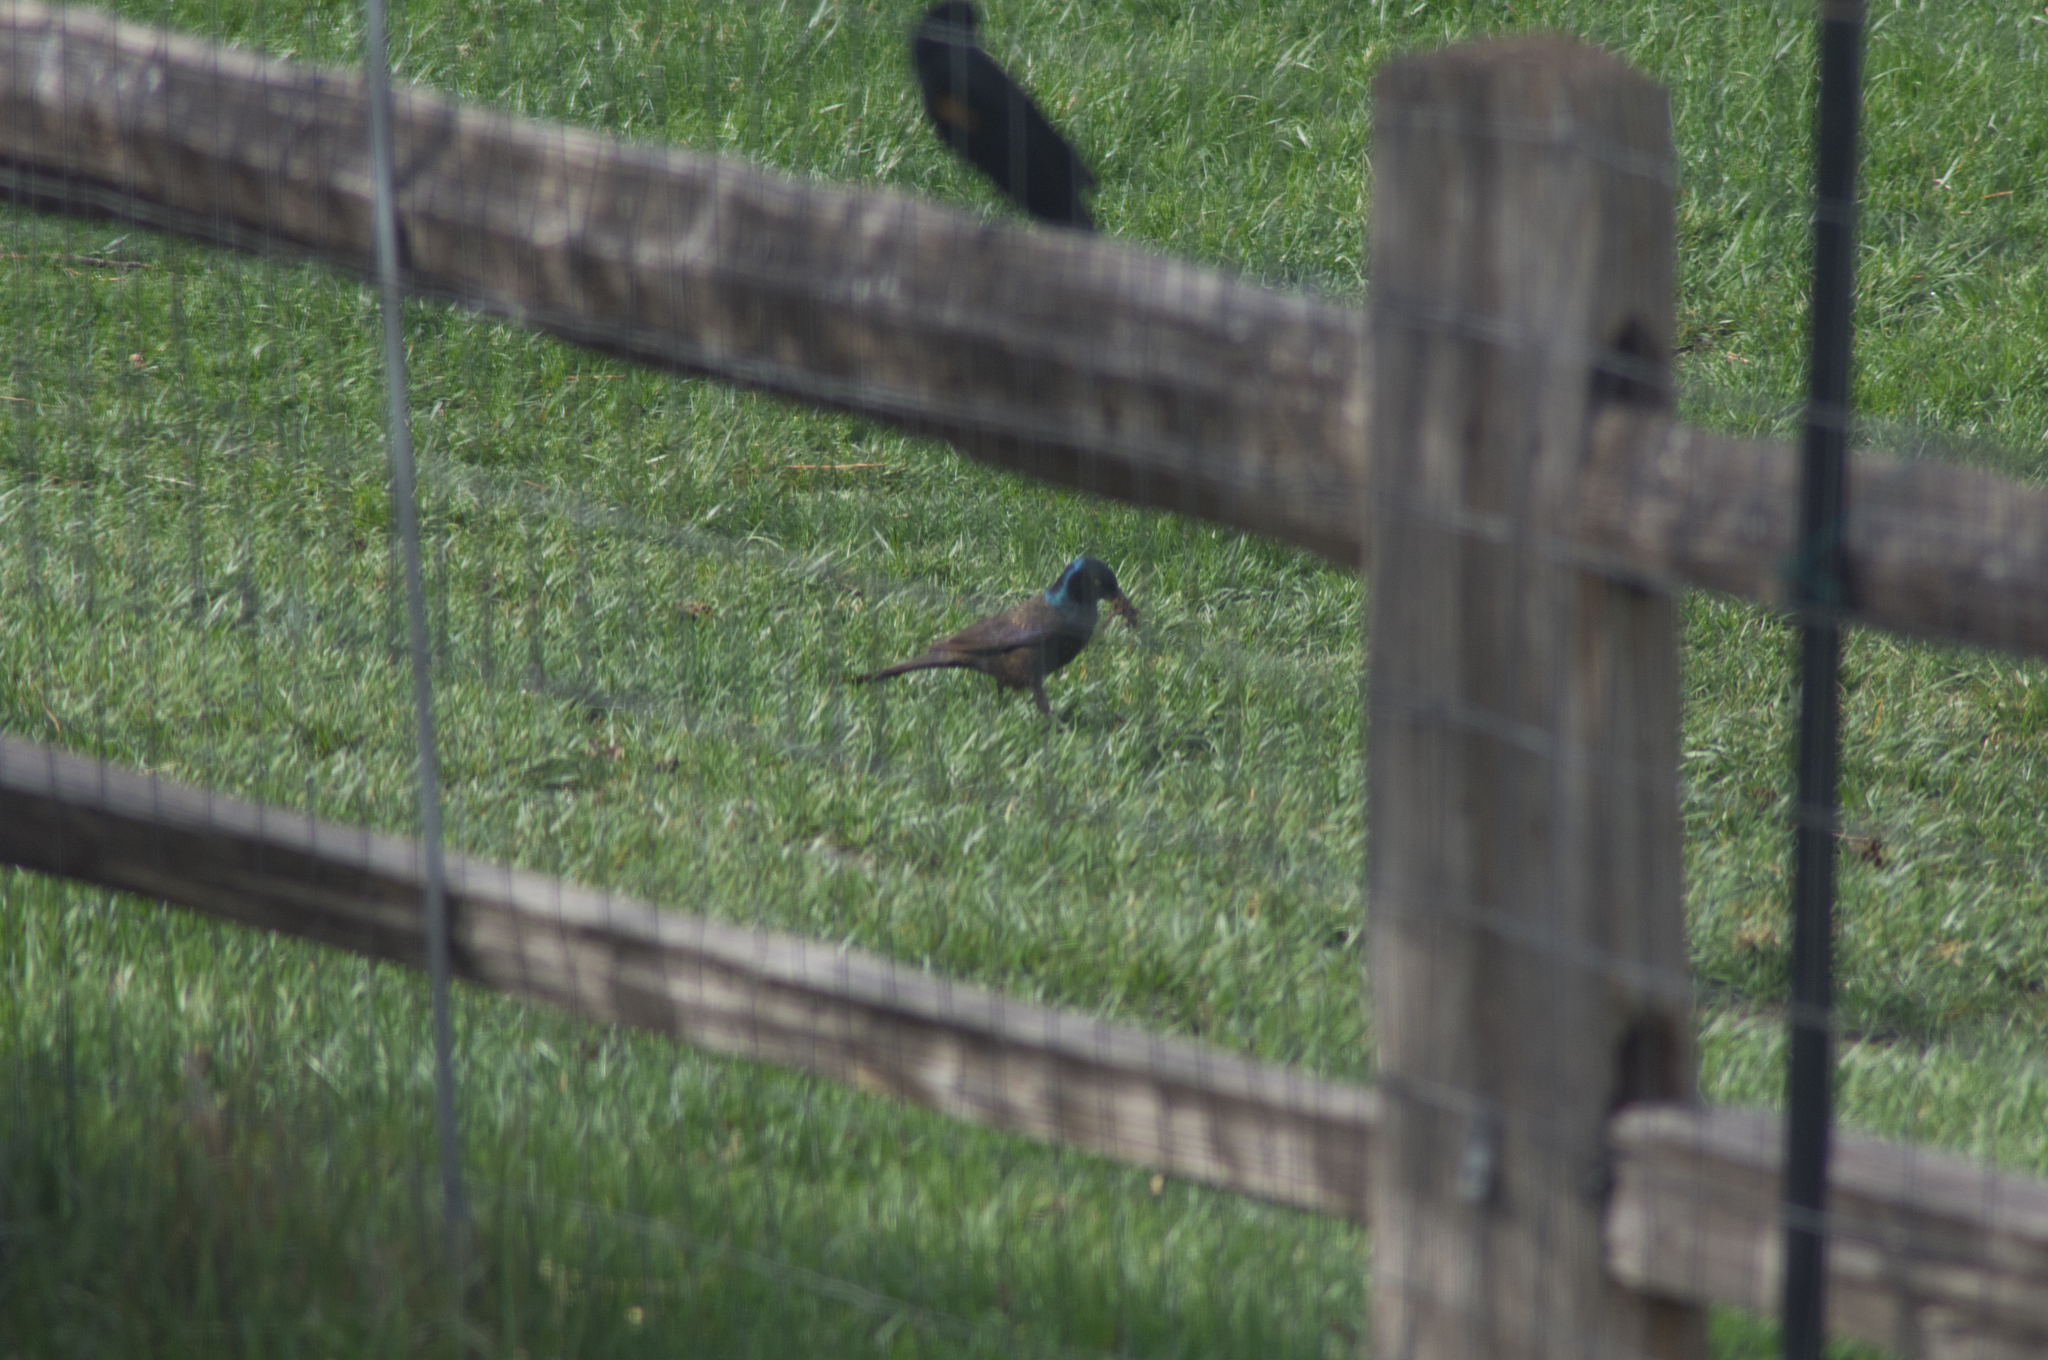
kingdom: Animalia
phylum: Chordata
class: Aves
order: Passeriformes
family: Icteridae
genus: Quiscalus
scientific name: Quiscalus quiscula
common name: Common grackle
